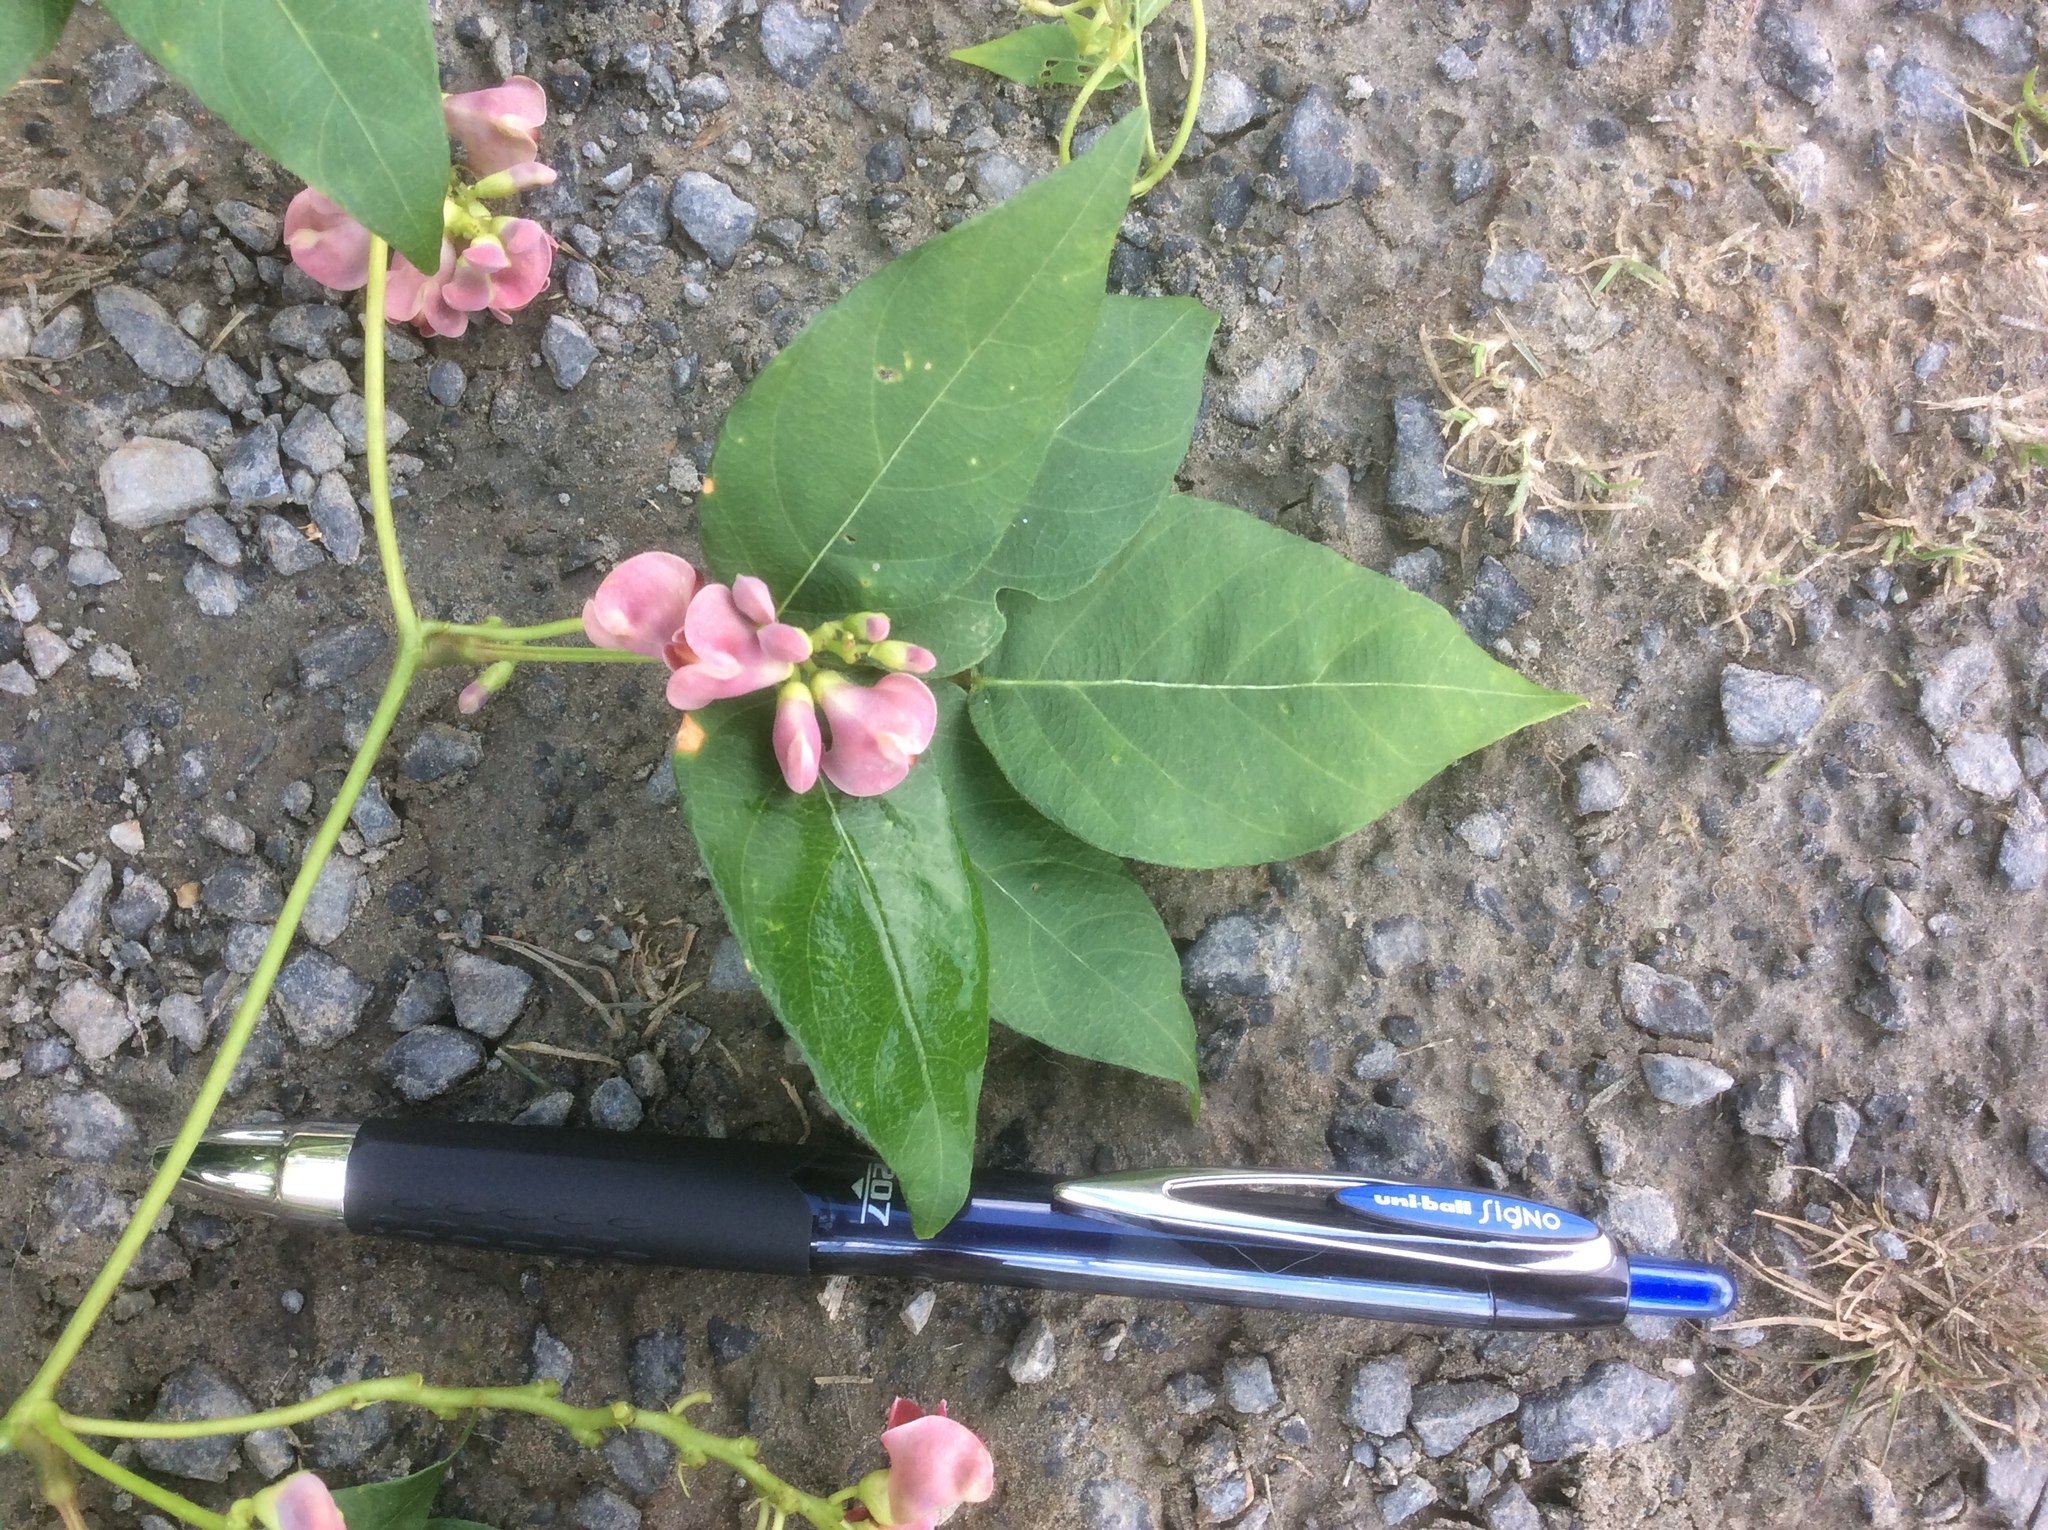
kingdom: Plantae
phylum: Tracheophyta
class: Magnoliopsida
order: Fabales
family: Fabaceae
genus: Apios
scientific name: Apios americana
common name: American potato-bean
